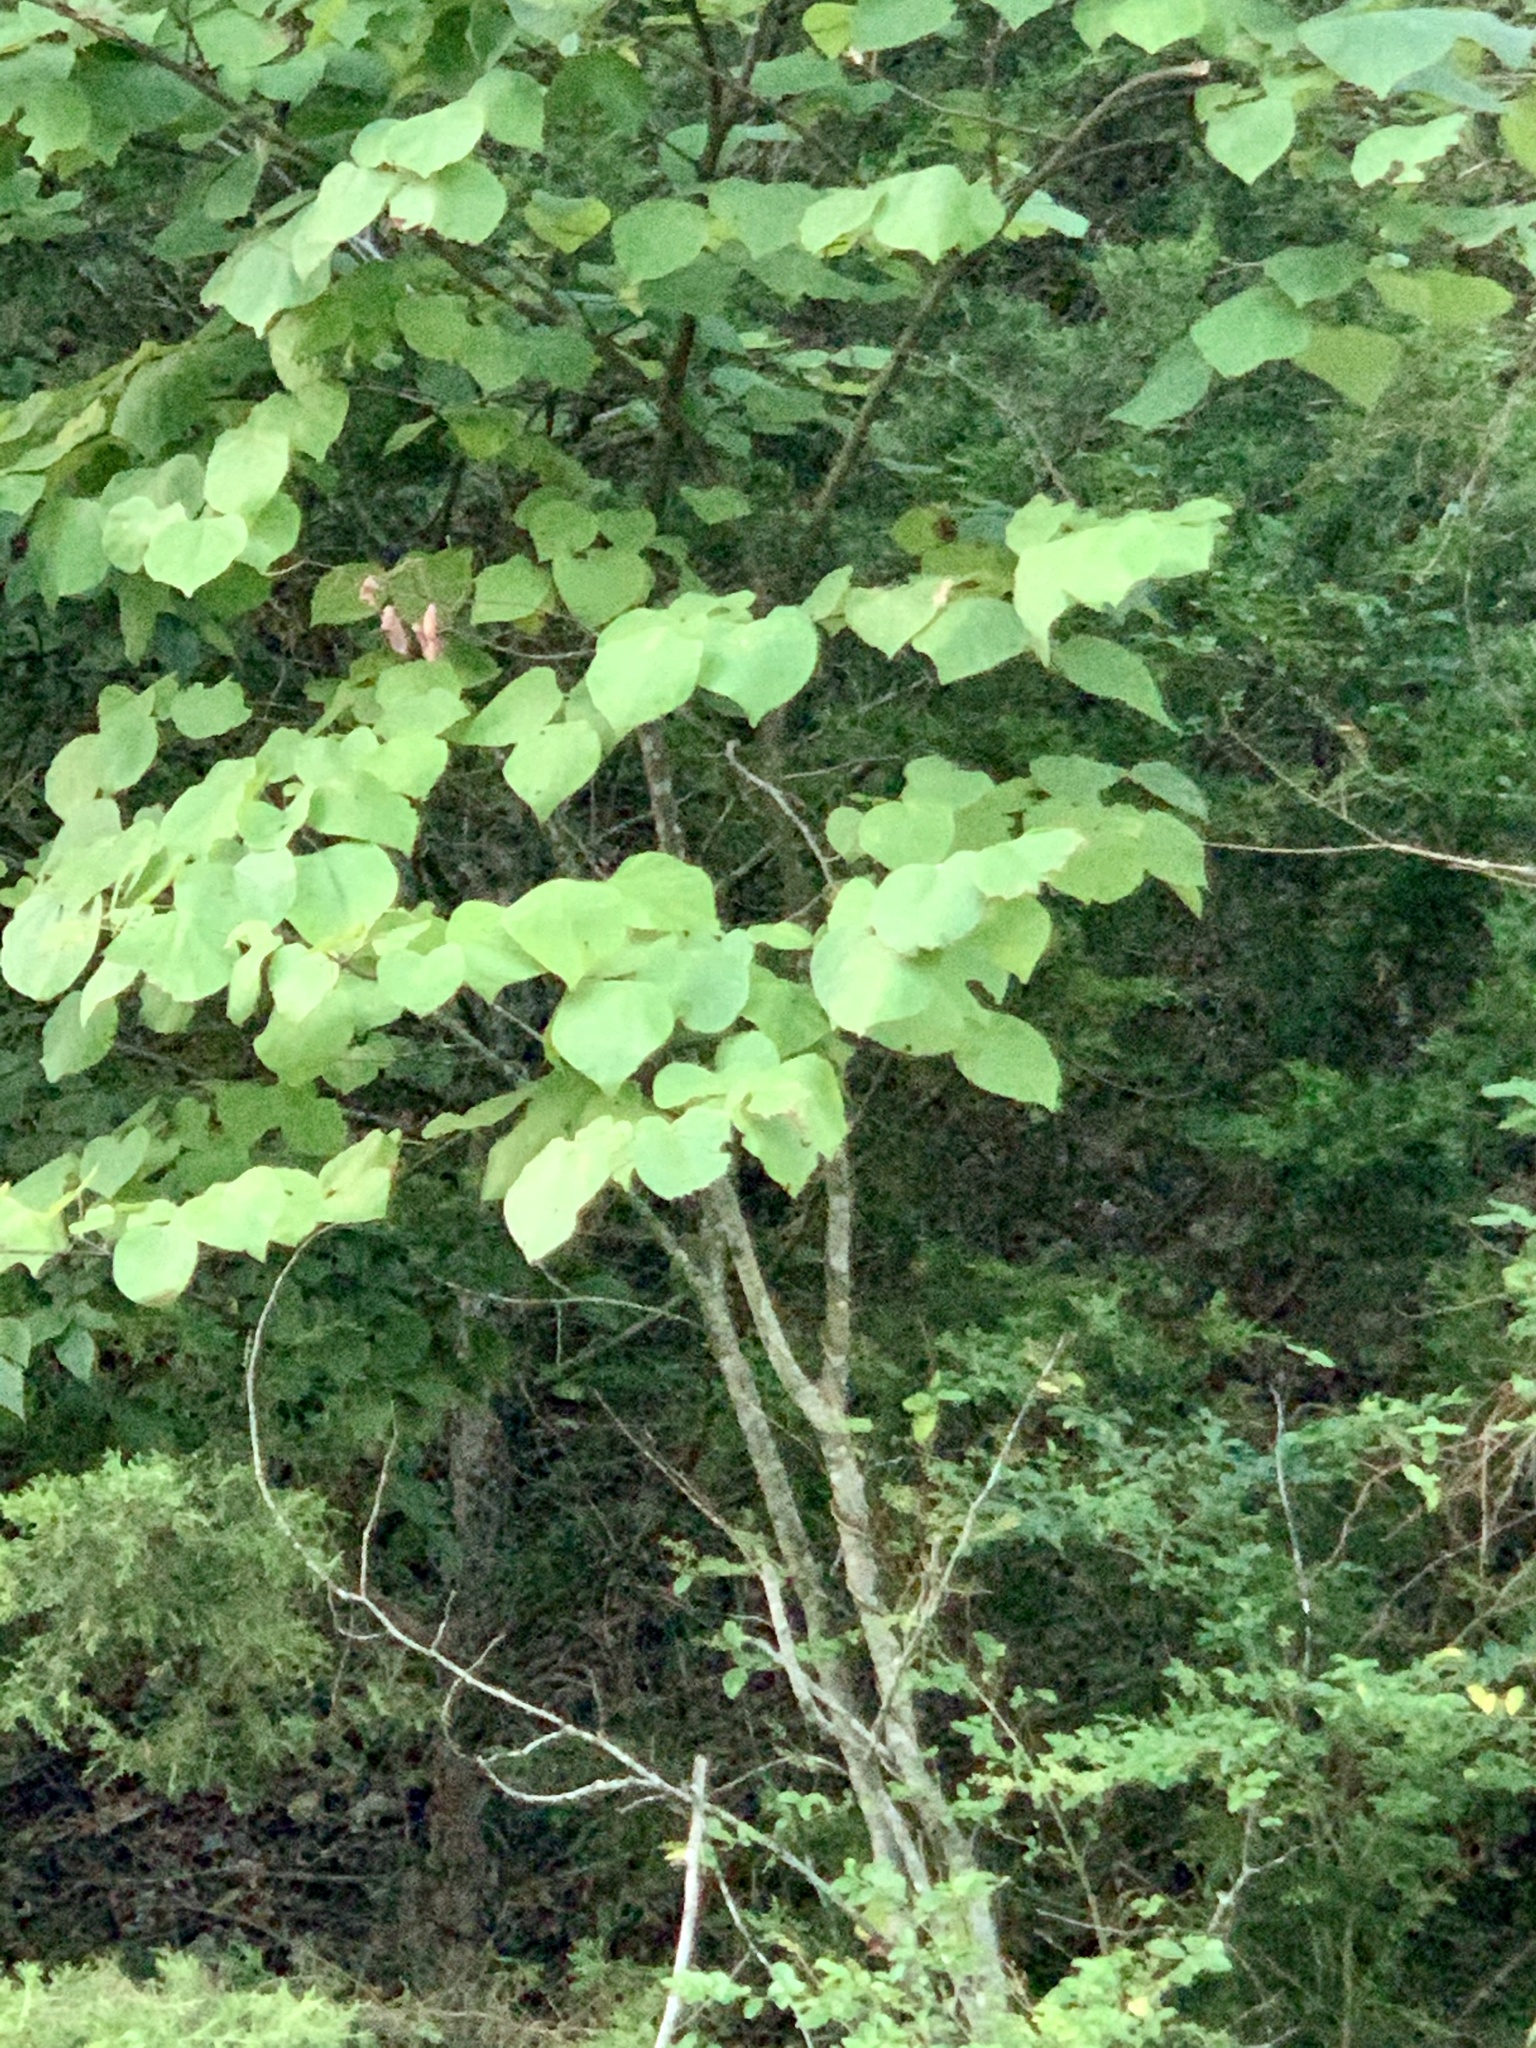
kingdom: Plantae
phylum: Tracheophyta
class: Magnoliopsida
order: Fabales
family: Fabaceae
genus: Cercis
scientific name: Cercis canadensis
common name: Eastern redbud
